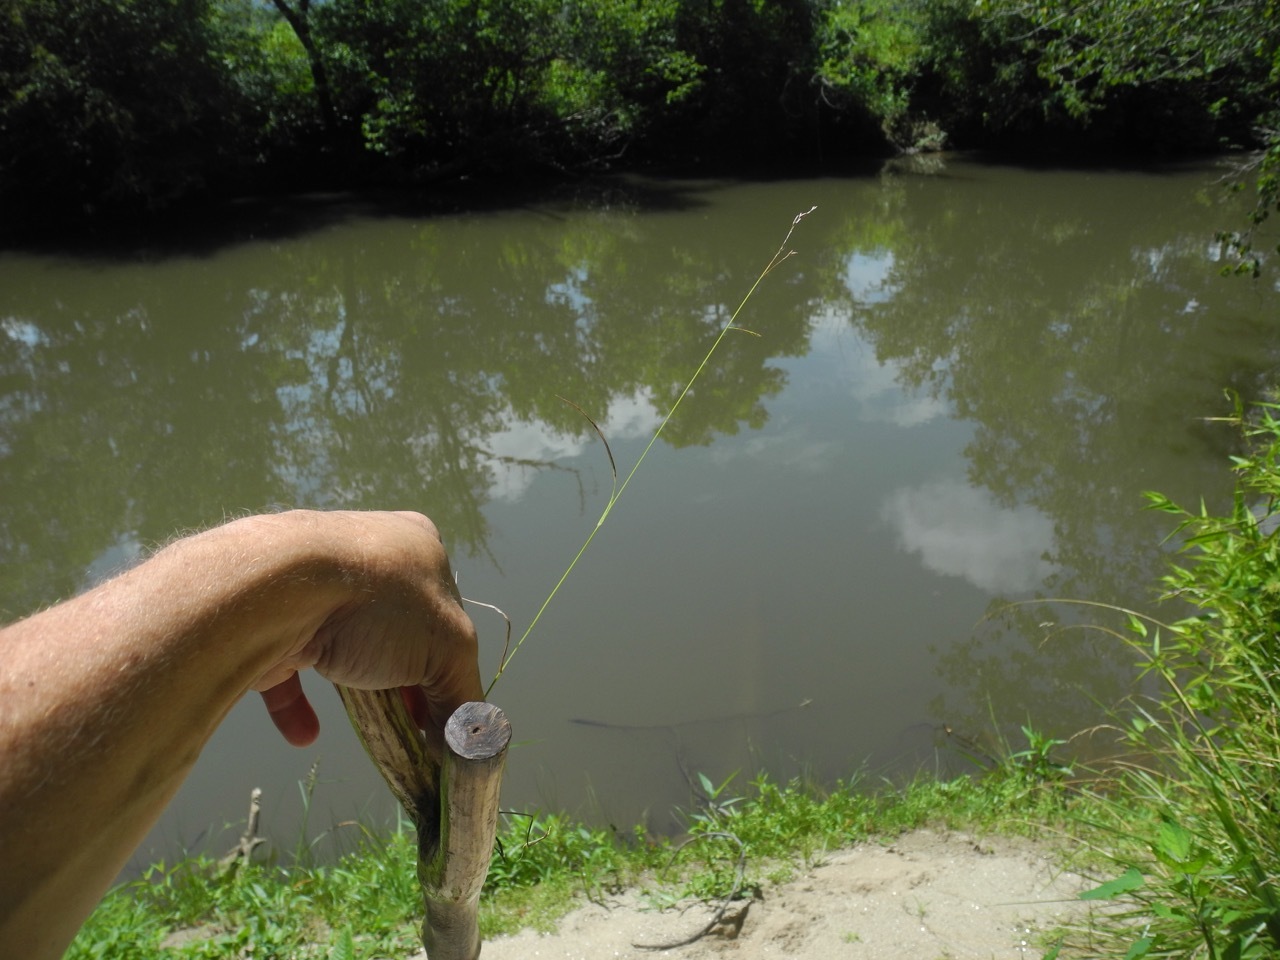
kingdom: Plantae
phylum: Tracheophyta
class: Liliopsida
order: Poales
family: Poaceae
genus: Festuca
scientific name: Festuca subverticillata
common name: Nodding fescue
